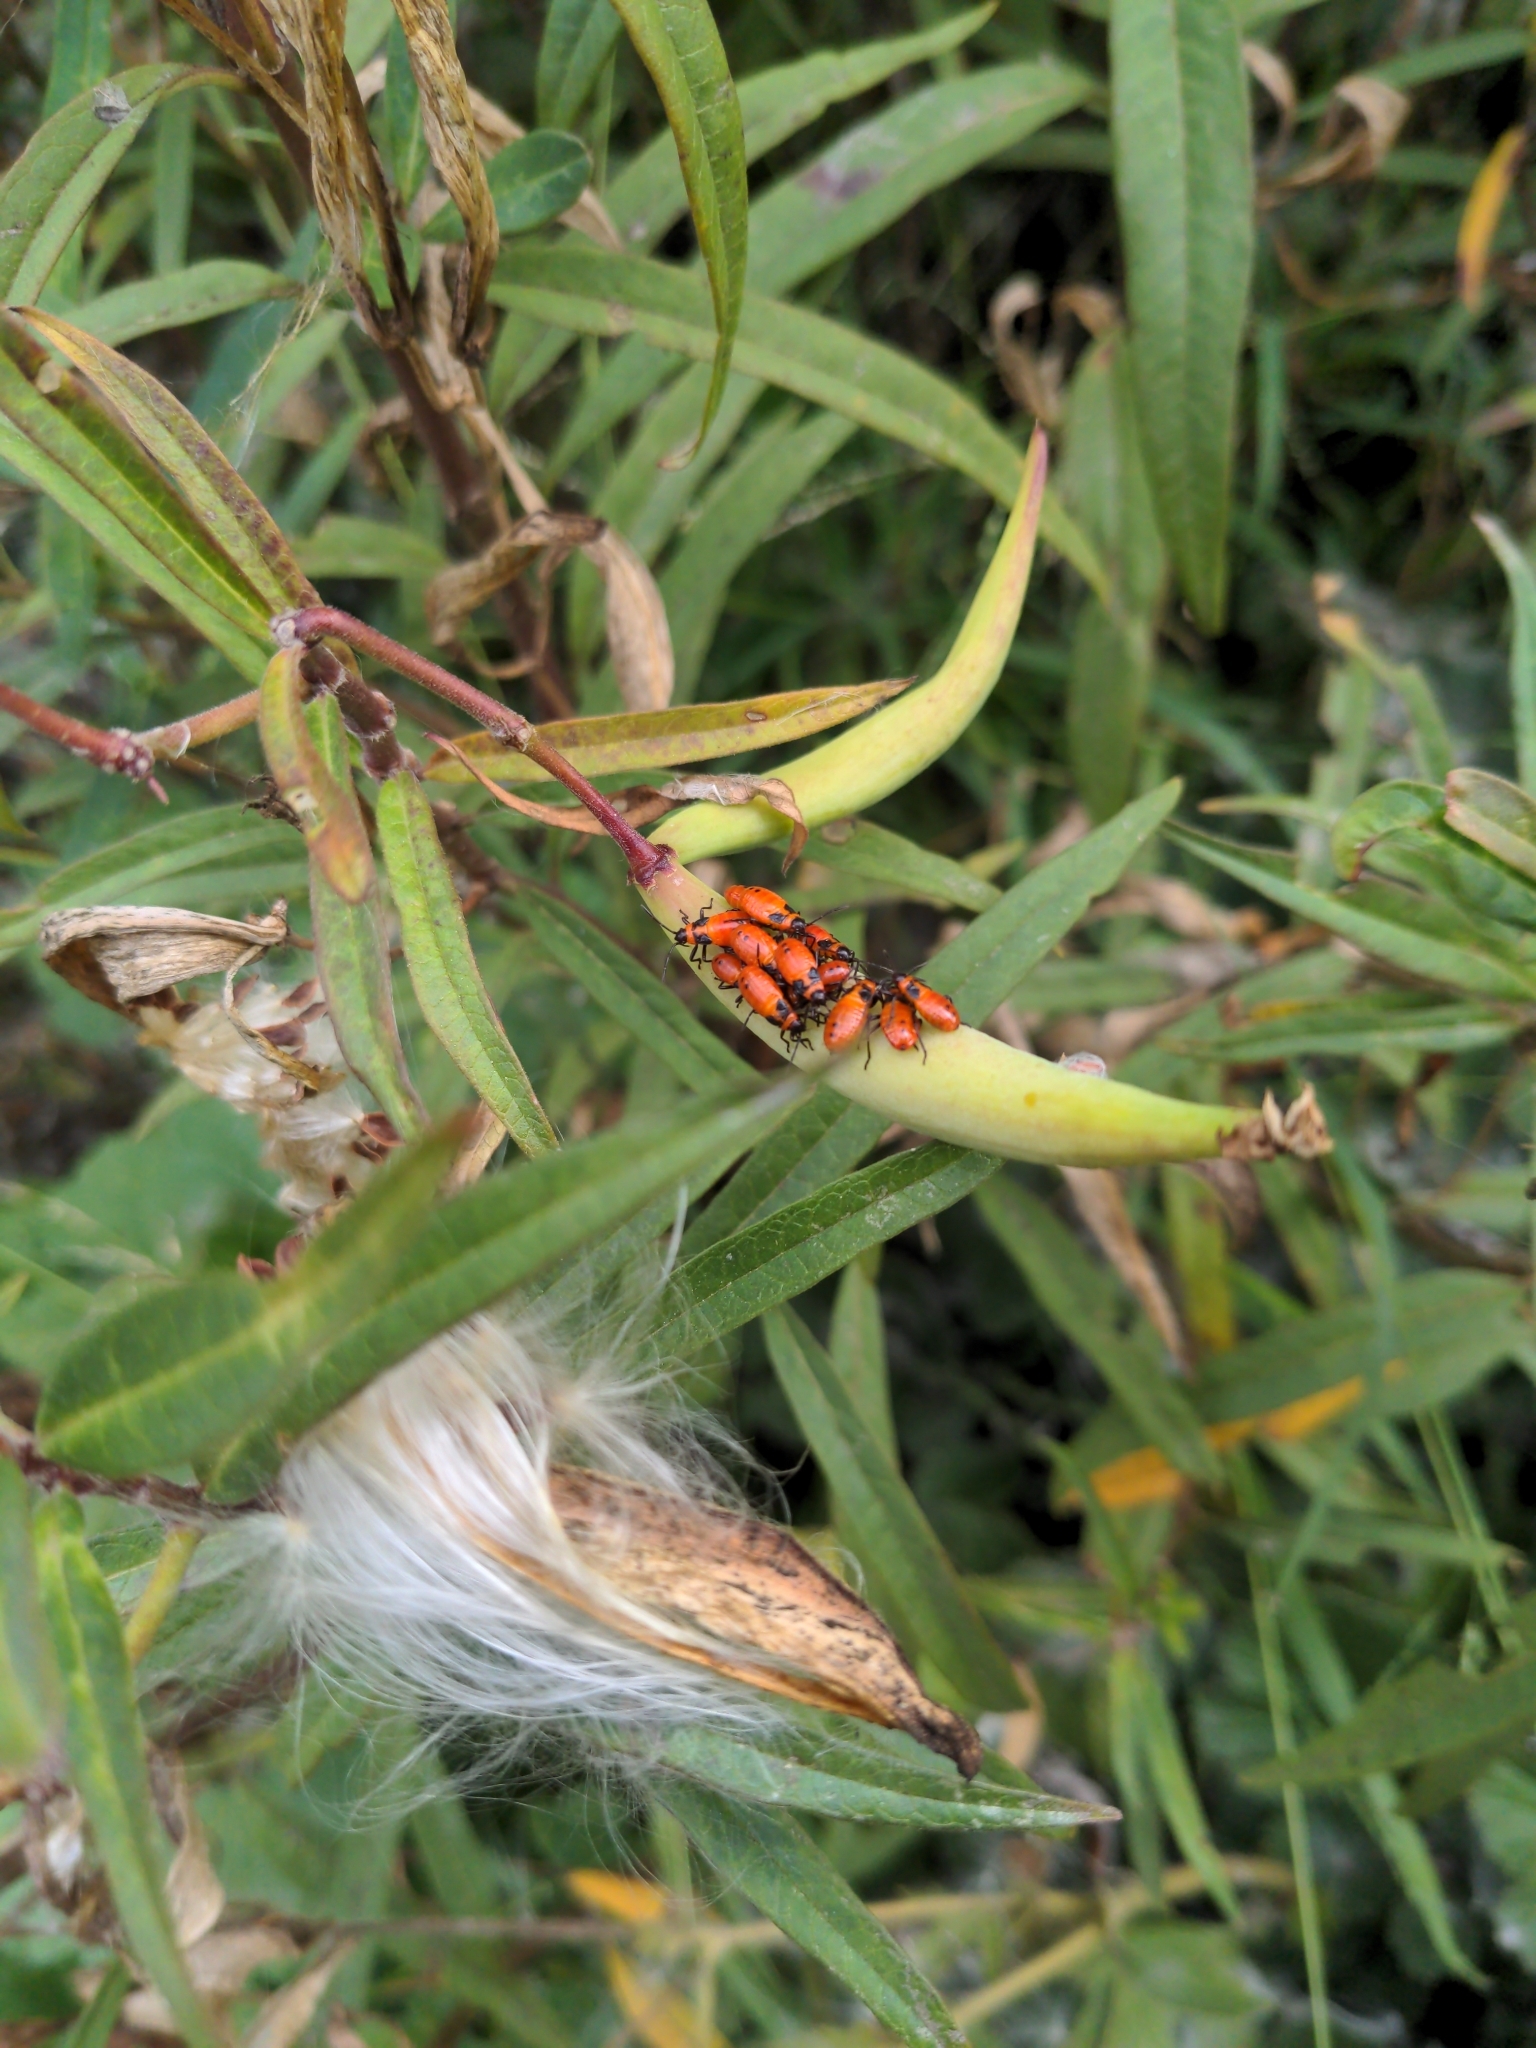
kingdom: Animalia
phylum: Arthropoda
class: Insecta
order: Hemiptera
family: Lygaeidae
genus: Oncopeltus
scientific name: Oncopeltus fasciatus
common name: Large milkweed bug
